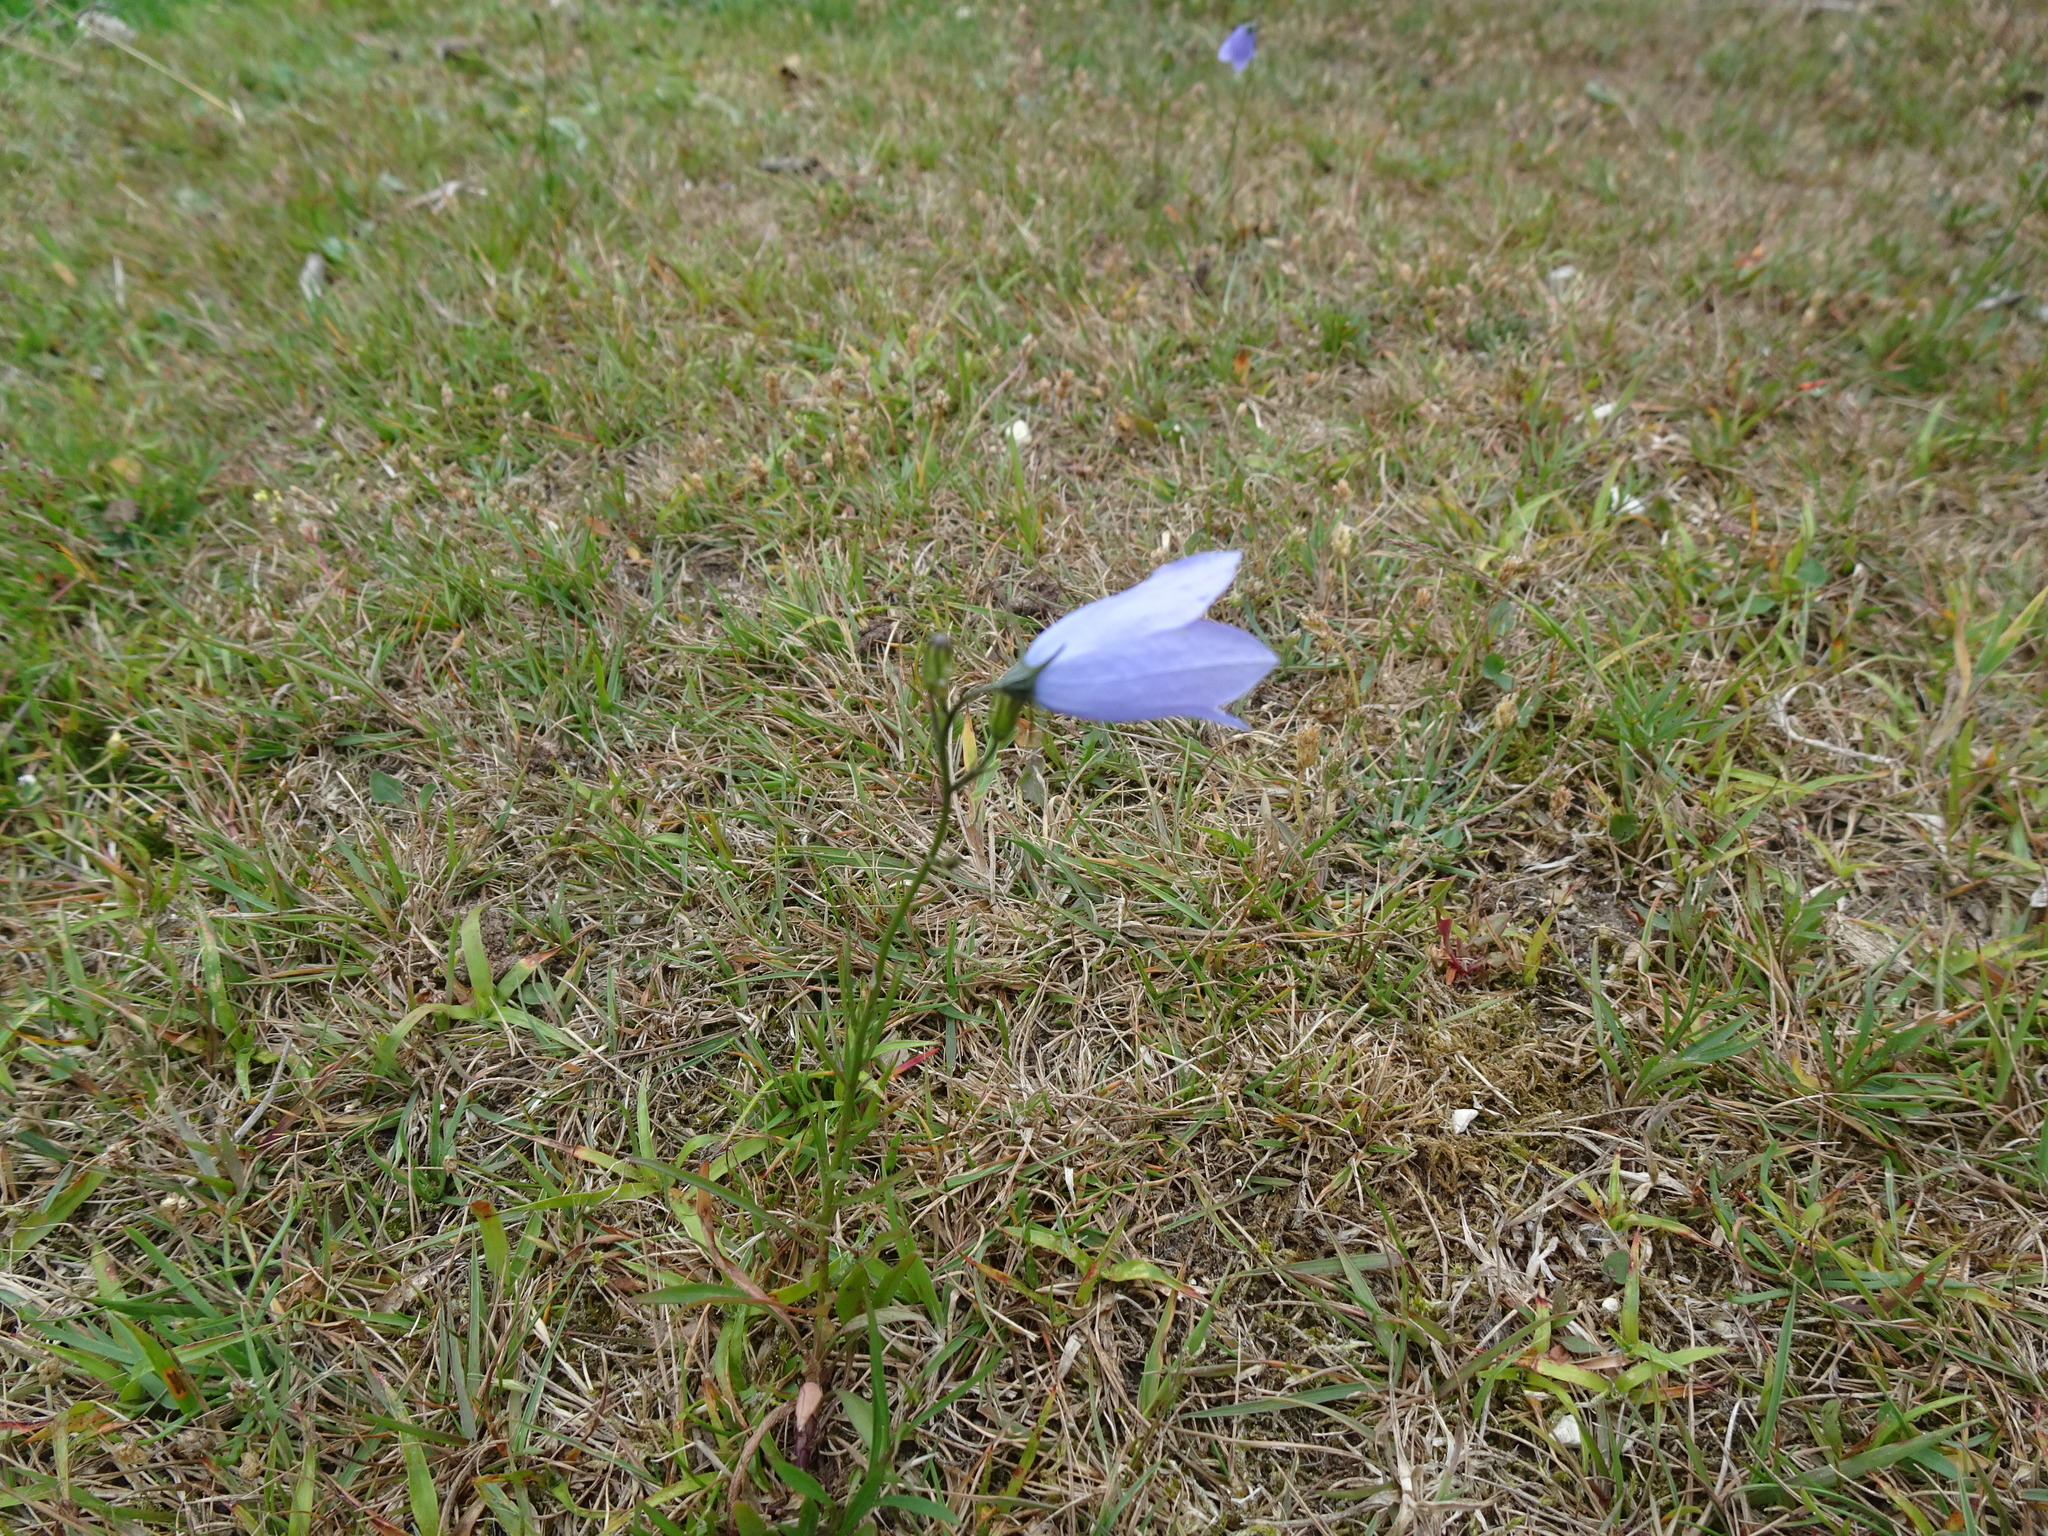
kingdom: Plantae
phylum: Tracheophyta
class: Magnoliopsida
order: Asterales
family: Campanulaceae
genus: Campanula
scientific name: Campanula rotundifolia
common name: Harebell
